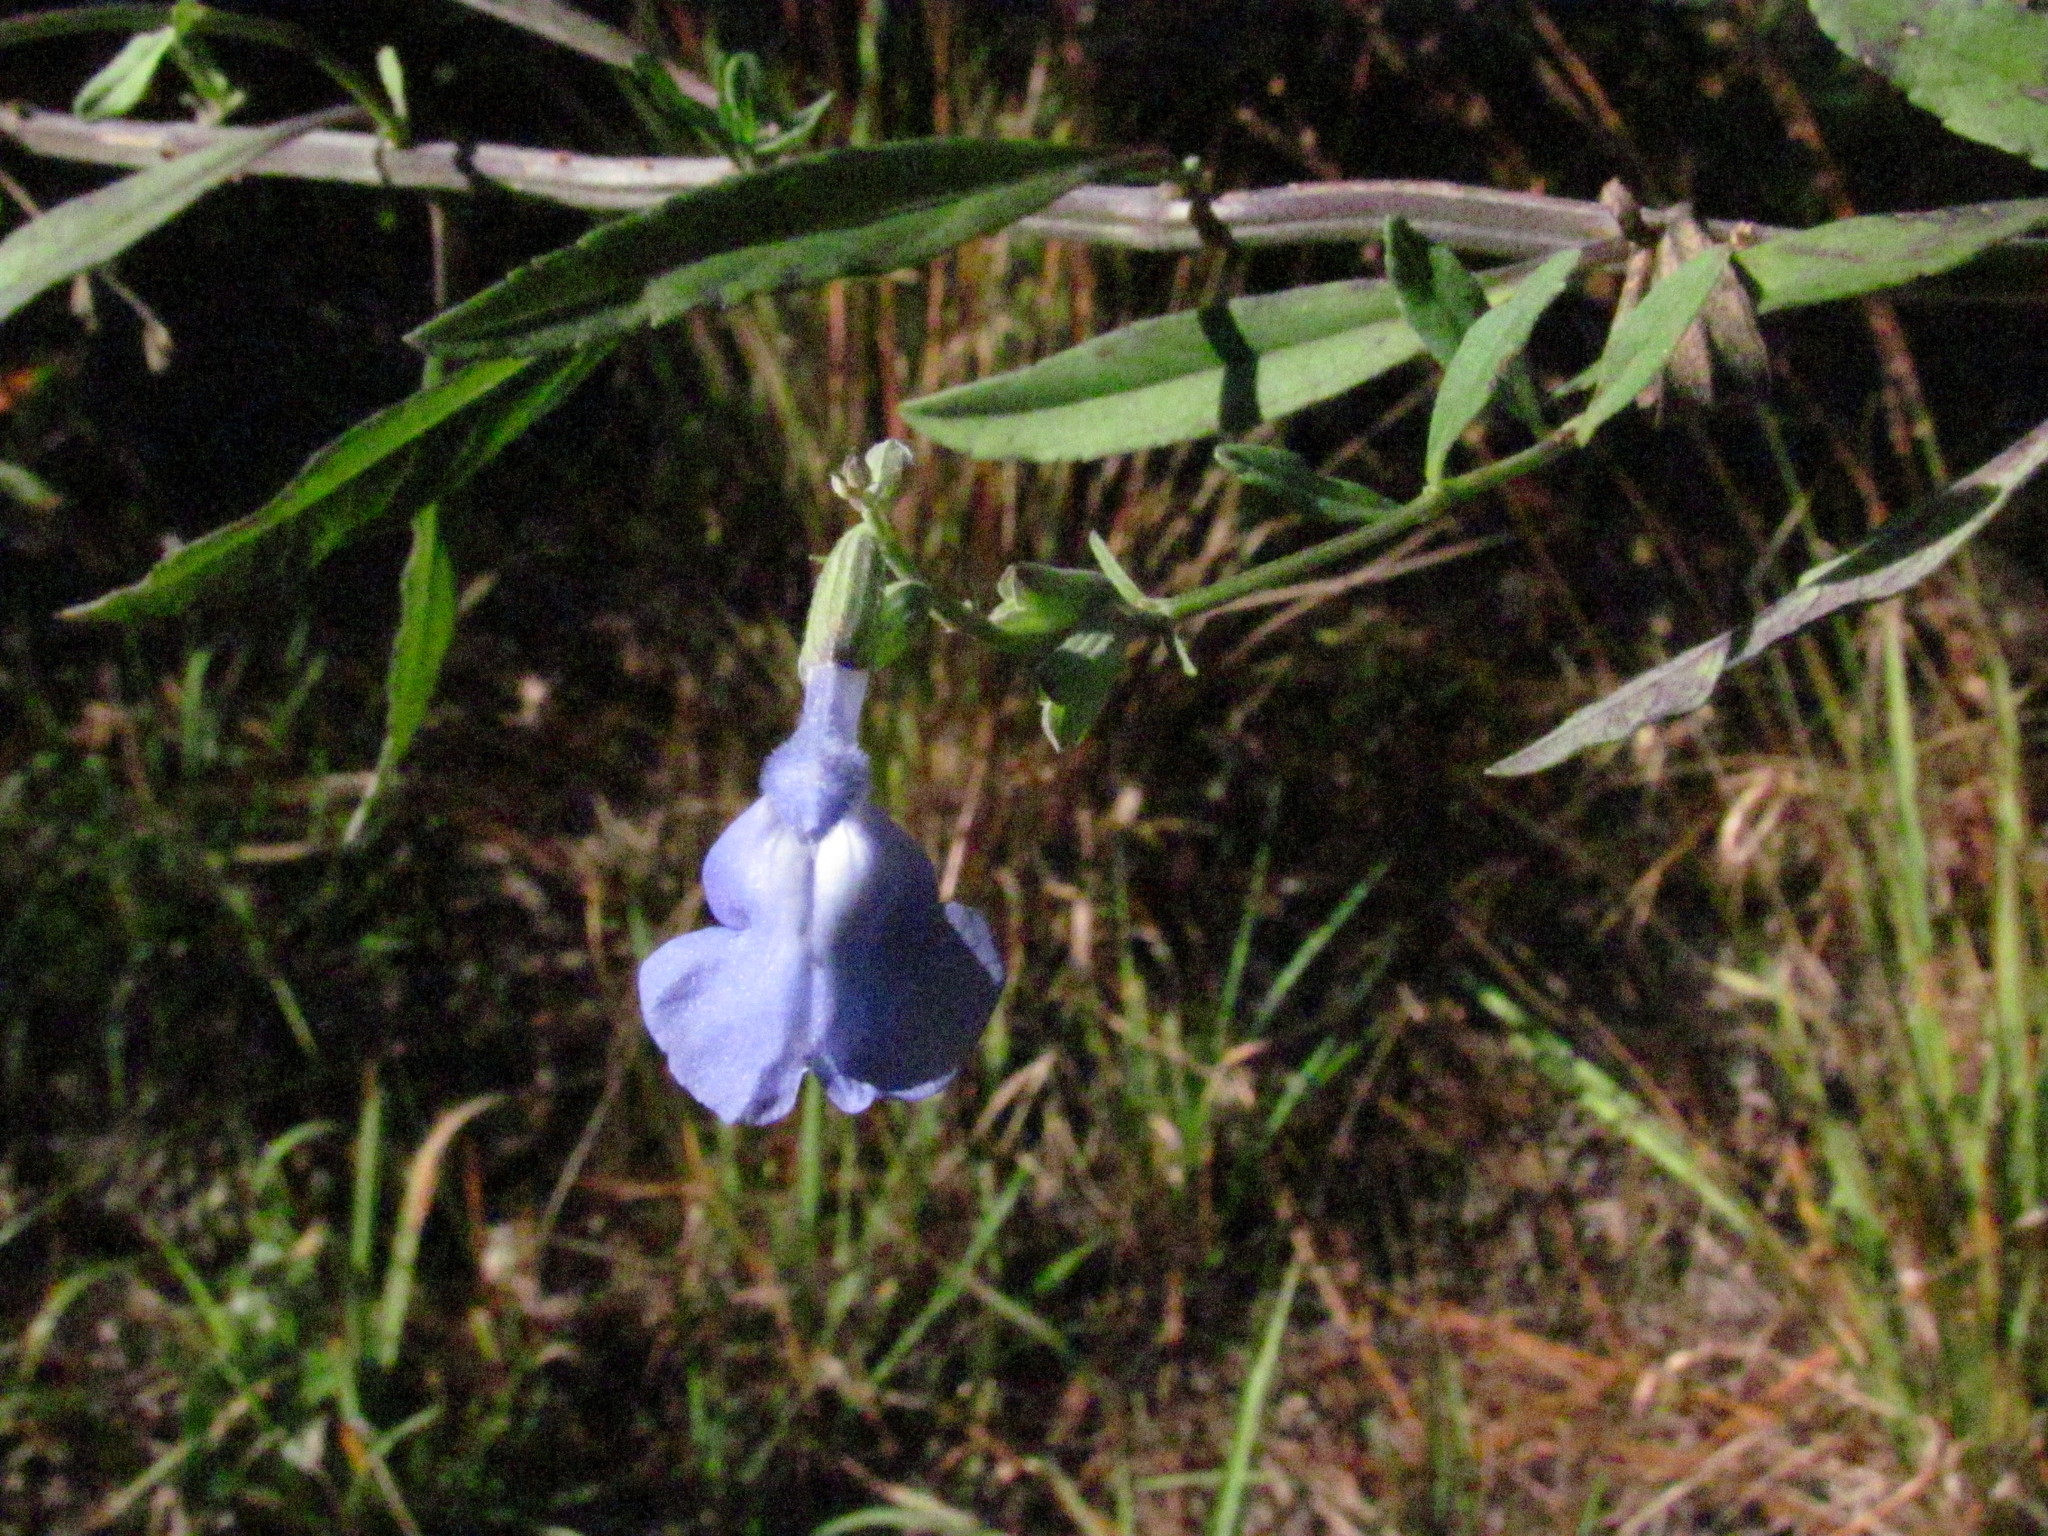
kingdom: Plantae
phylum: Tracheophyta
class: Magnoliopsida
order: Lamiales
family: Lamiaceae
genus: Salvia
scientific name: Salvia azurea
